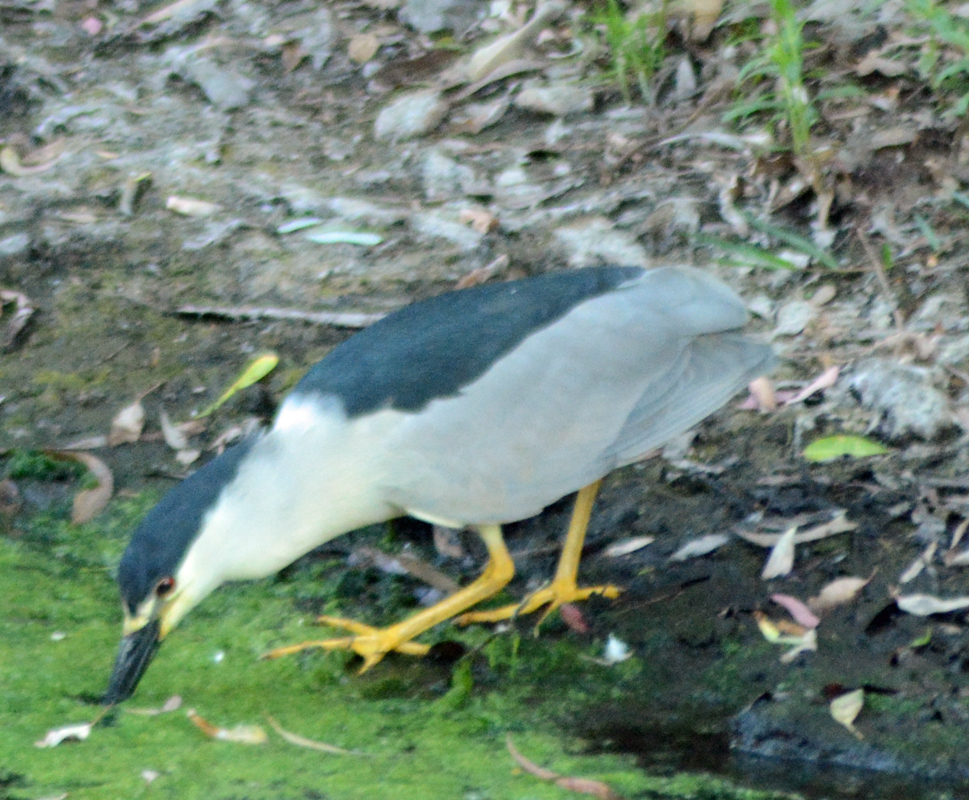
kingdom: Animalia
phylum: Chordata
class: Aves
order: Pelecaniformes
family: Ardeidae
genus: Nycticorax
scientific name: Nycticorax nycticorax
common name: Black-crowned night heron
